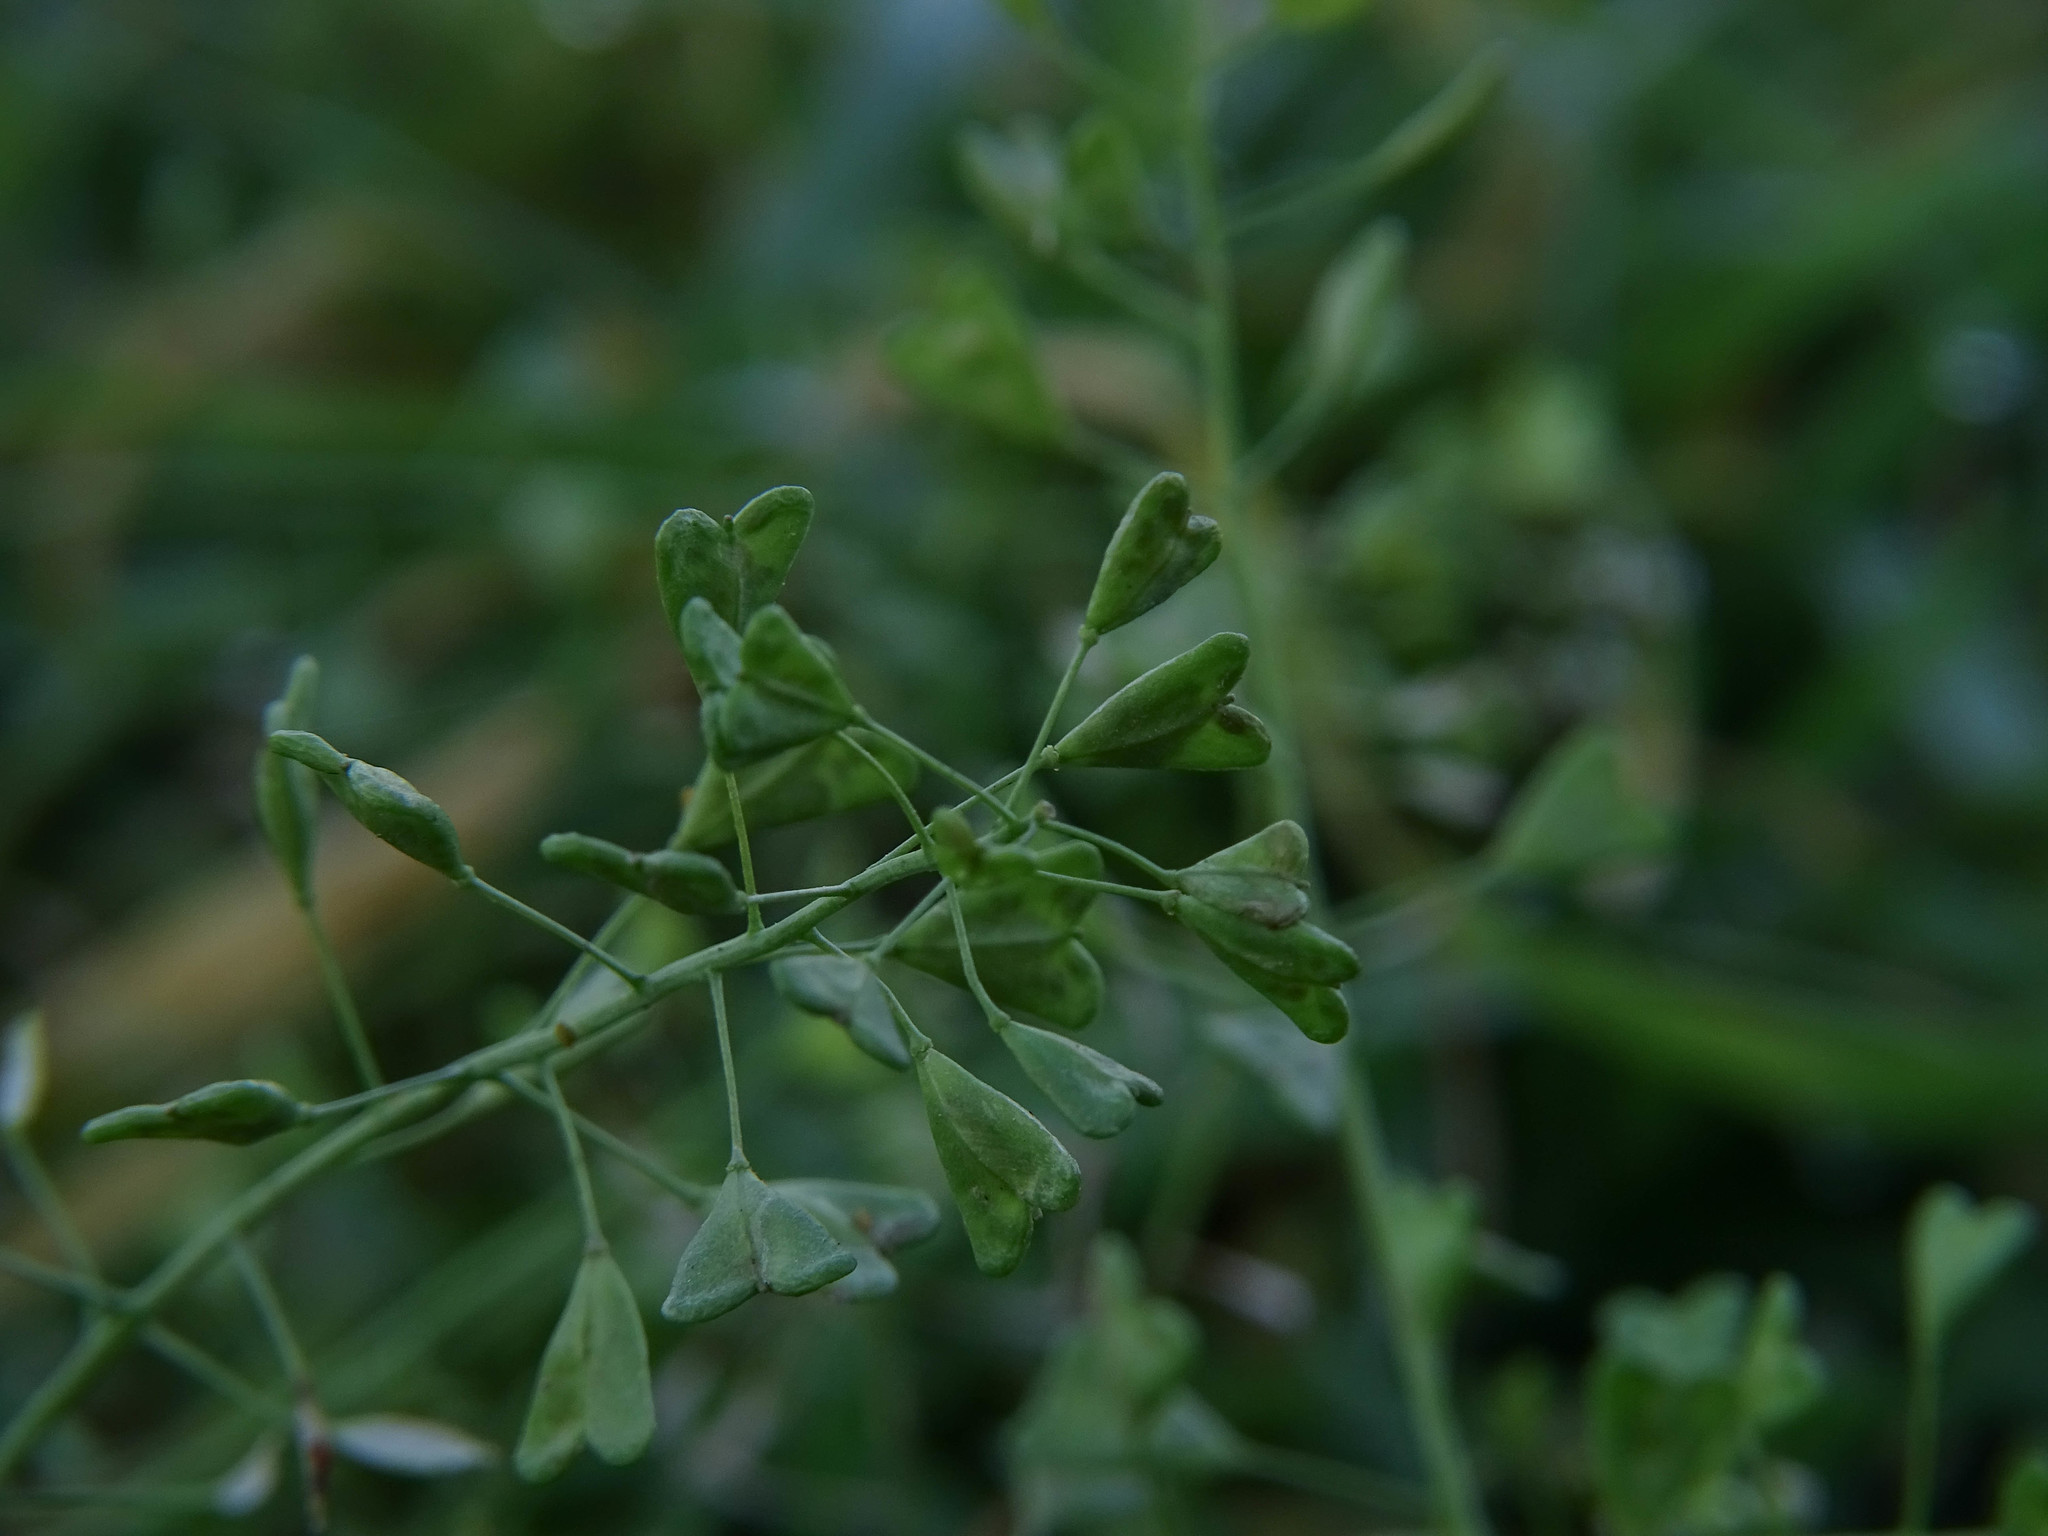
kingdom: Plantae
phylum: Tracheophyta
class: Magnoliopsida
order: Brassicales
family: Brassicaceae
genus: Capsella
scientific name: Capsella bursa-pastoris
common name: Shepherd's purse
